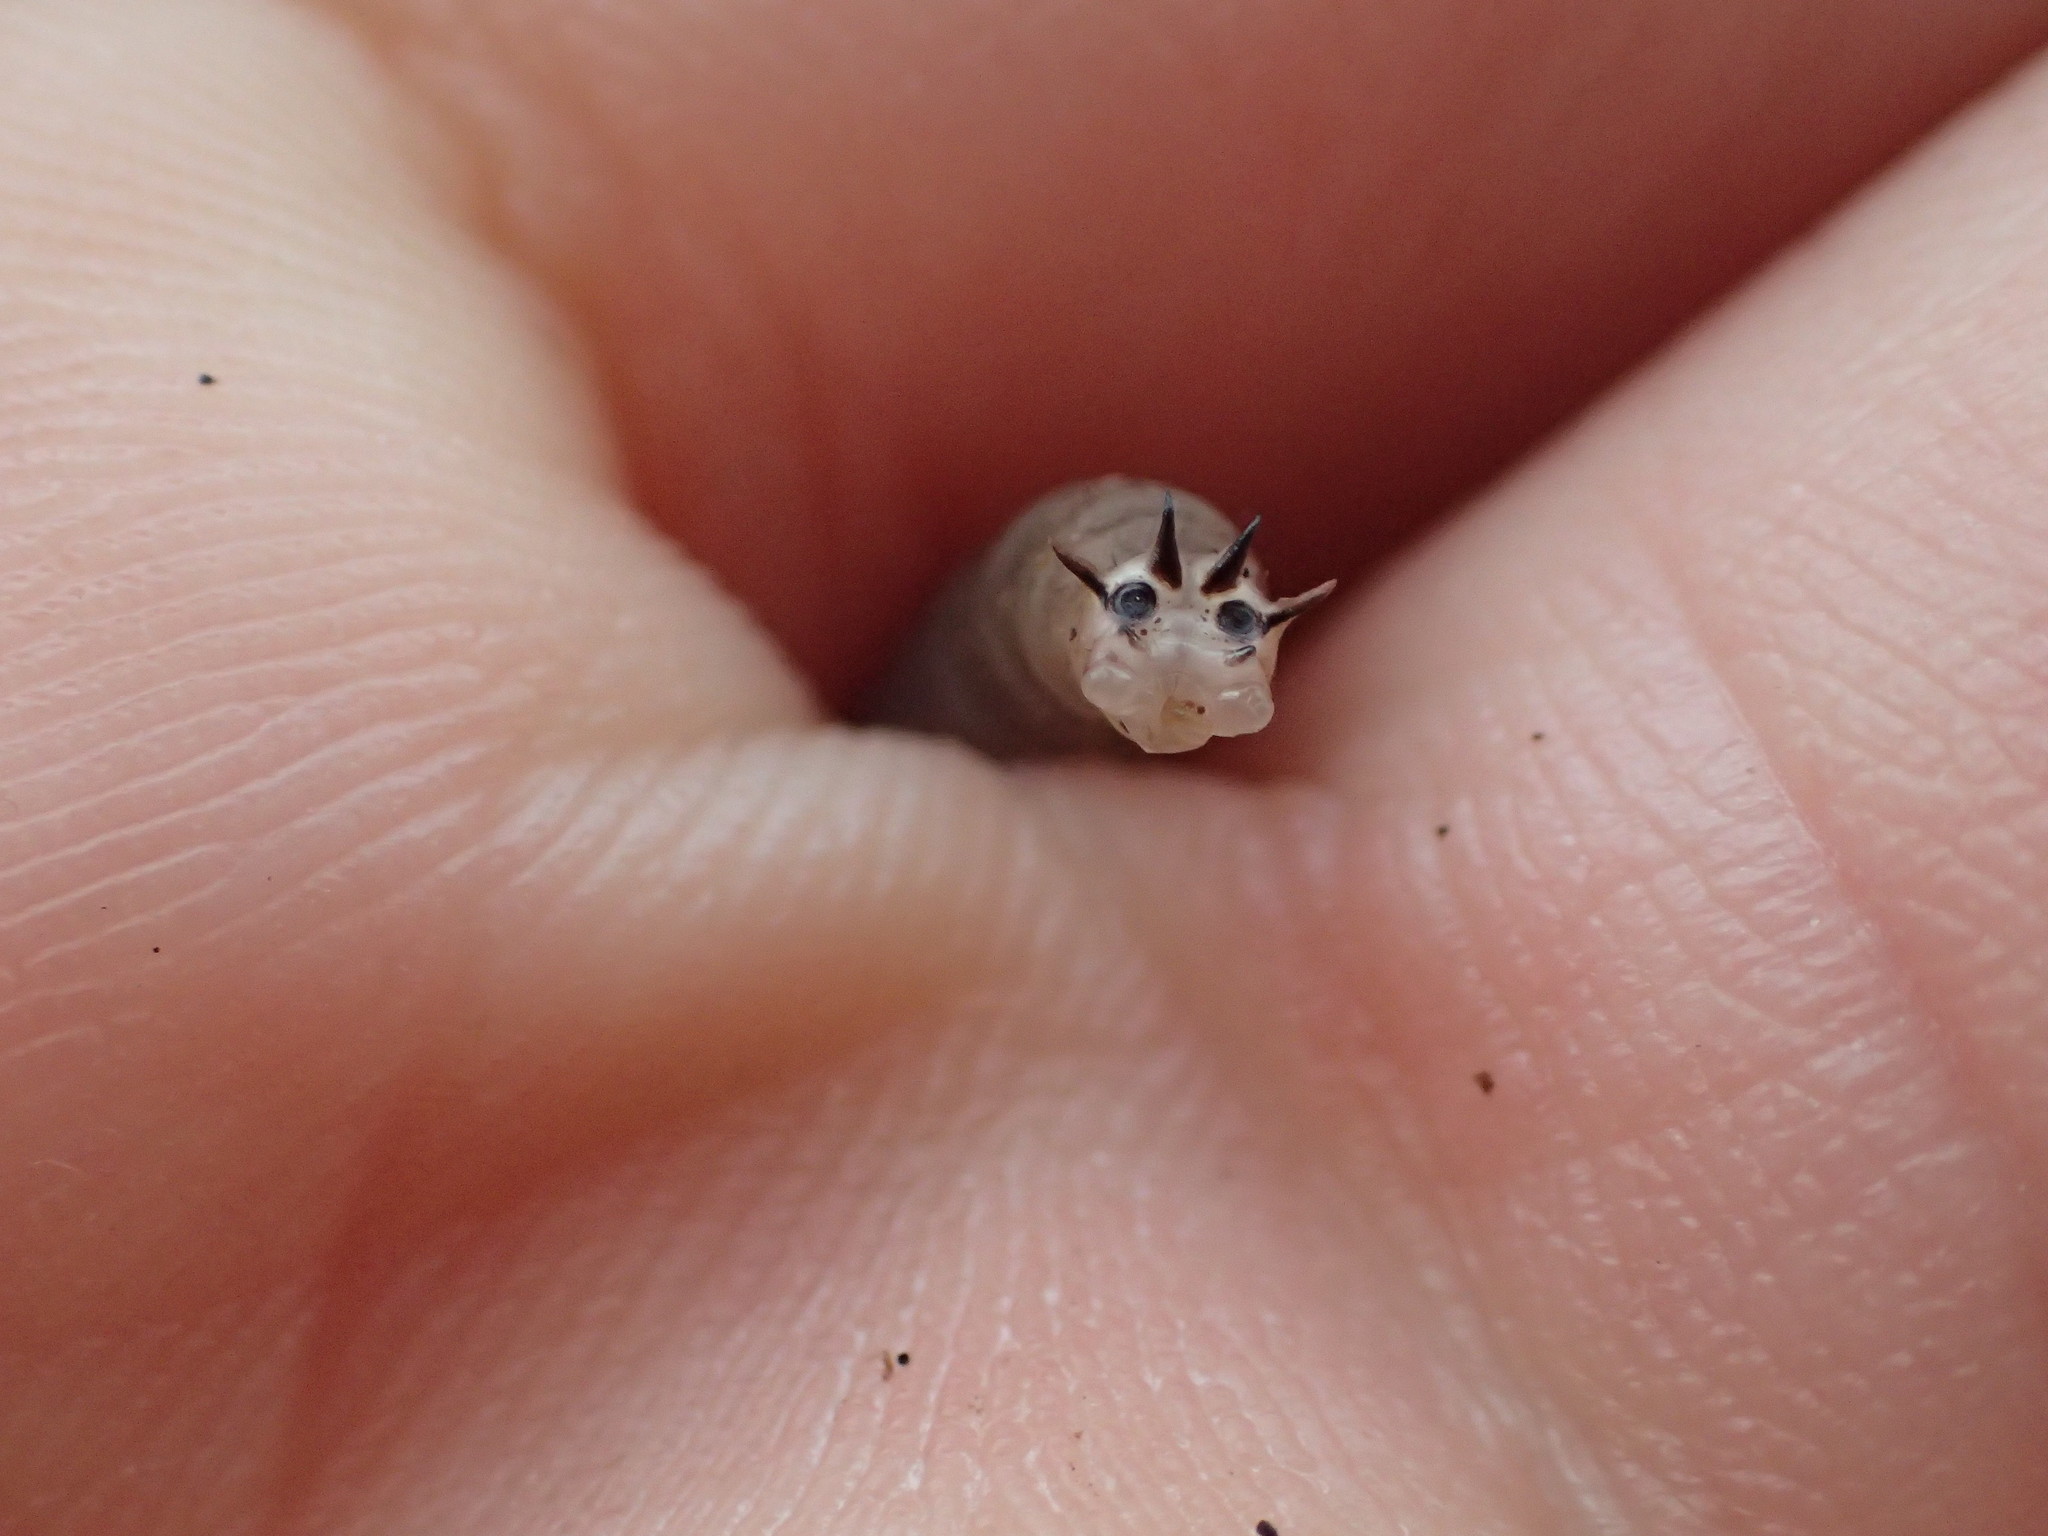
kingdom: Animalia
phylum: Arthropoda
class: Insecta
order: Diptera
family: Tipulidae
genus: Tipula
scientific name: Tipula entomophthorae
